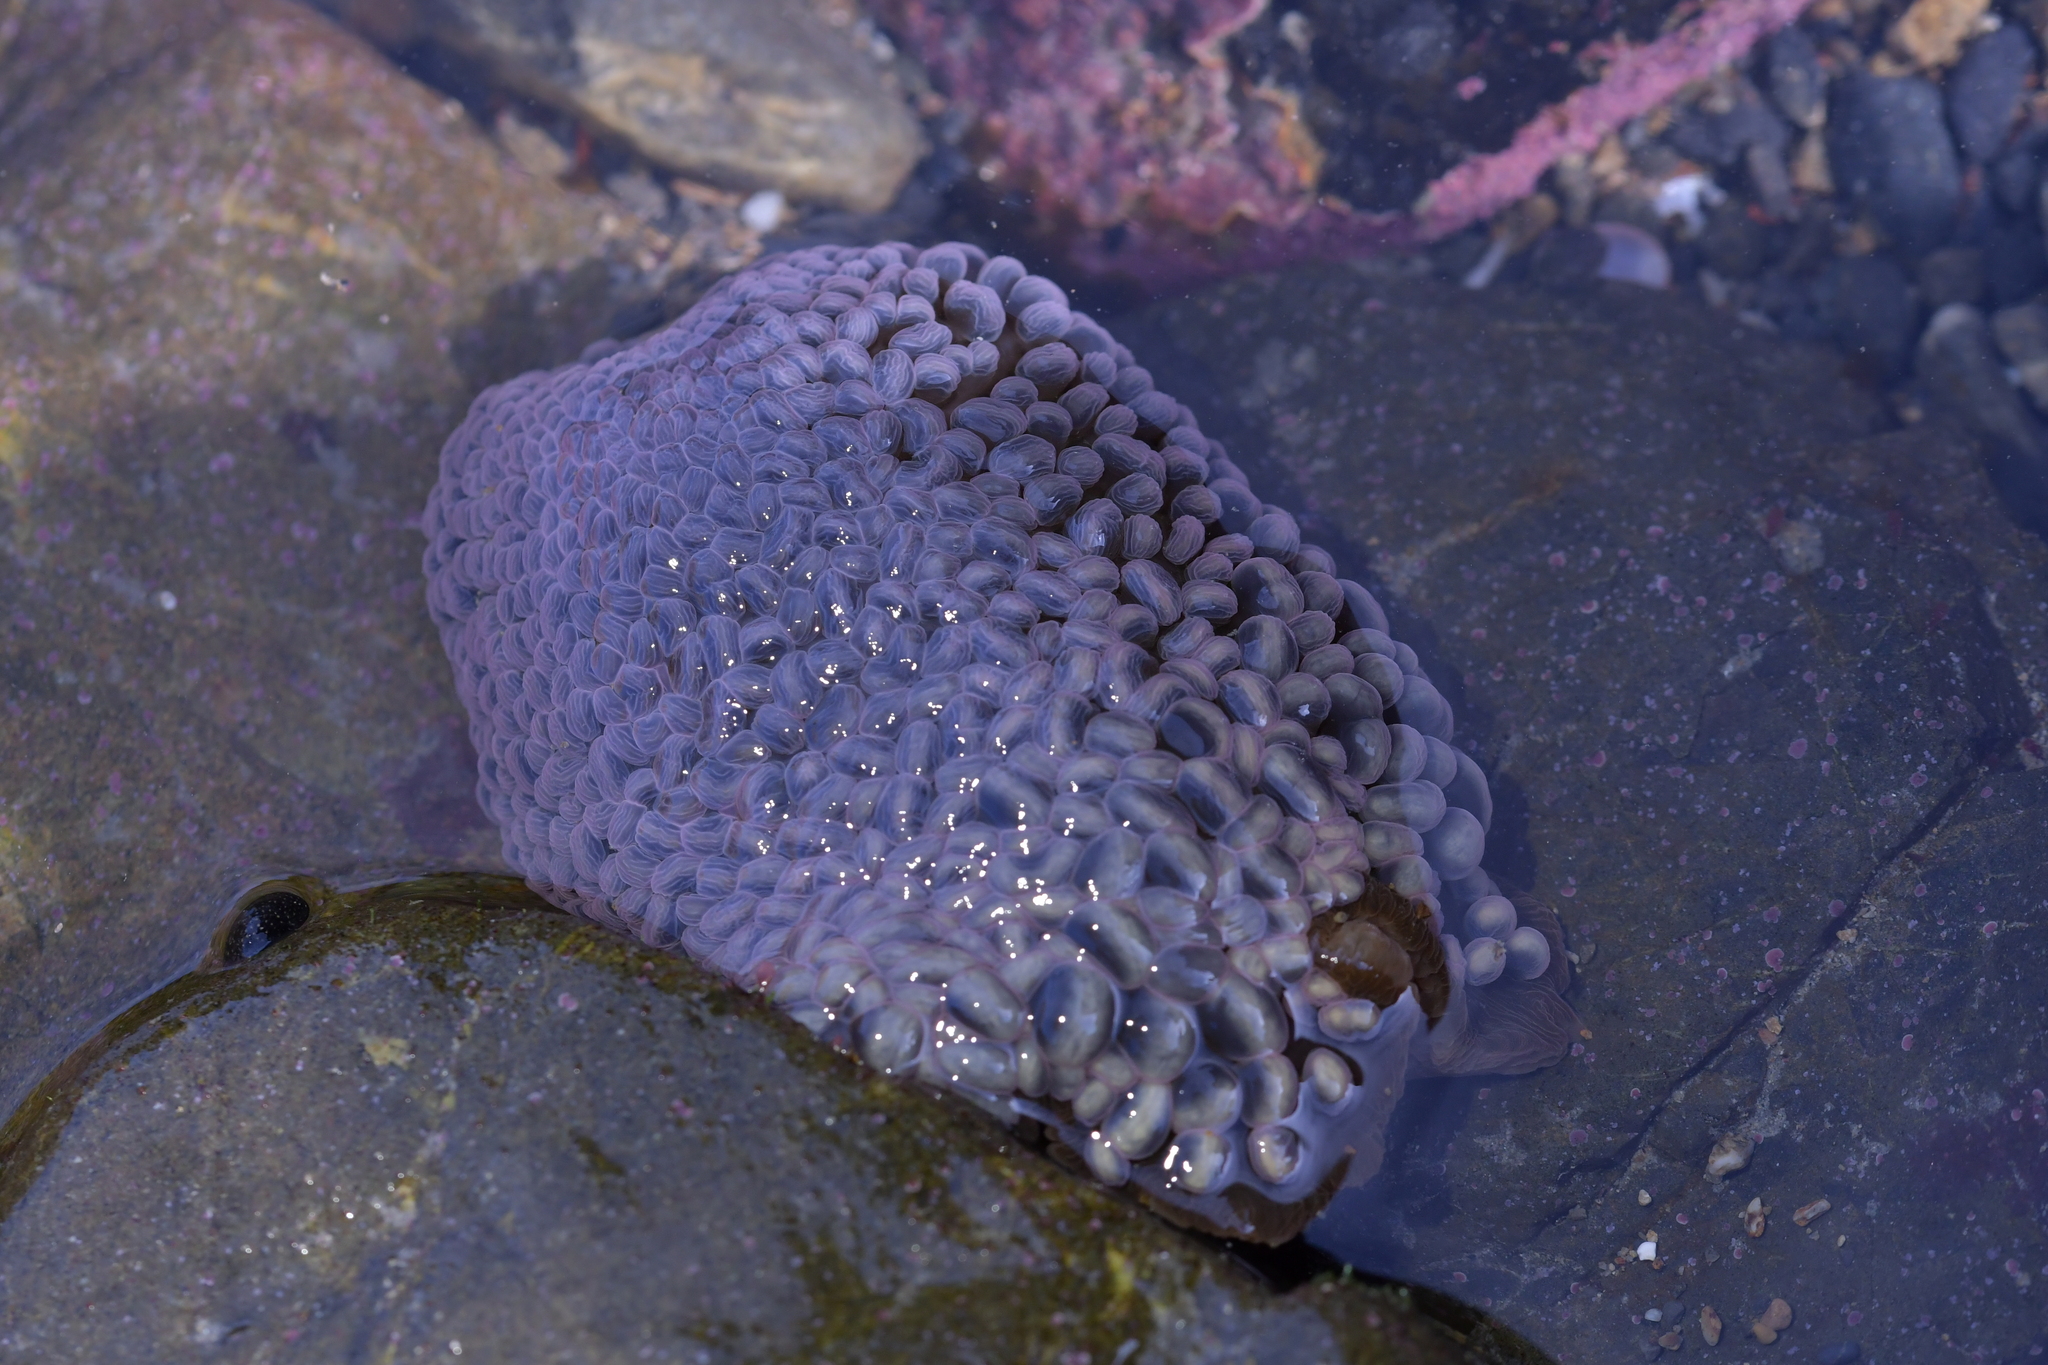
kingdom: Animalia
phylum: Cnidaria
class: Anthozoa
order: Actiniaria
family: Actiniidae
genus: Phlyctenactis
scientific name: Phlyctenactis tuberculosa
